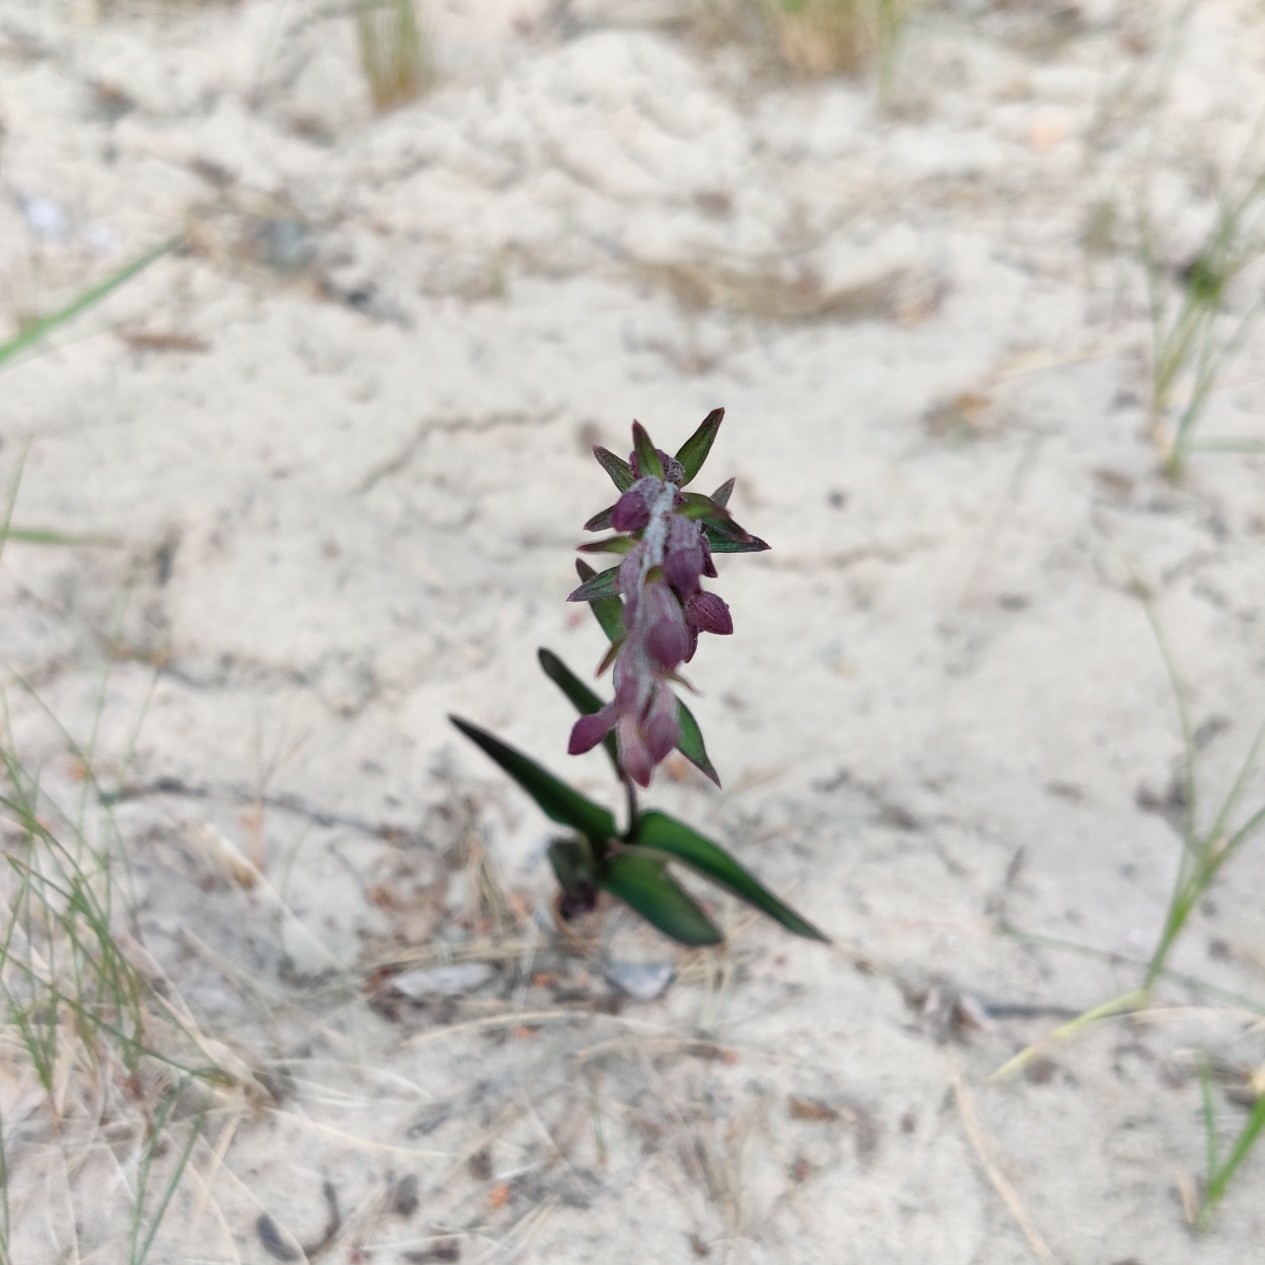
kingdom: Plantae
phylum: Tracheophyta
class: Liliopsida
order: Asparagales
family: Orchidaceae
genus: Epipactis
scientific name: Epipactis atrorubens
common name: Dark-red helleborine
